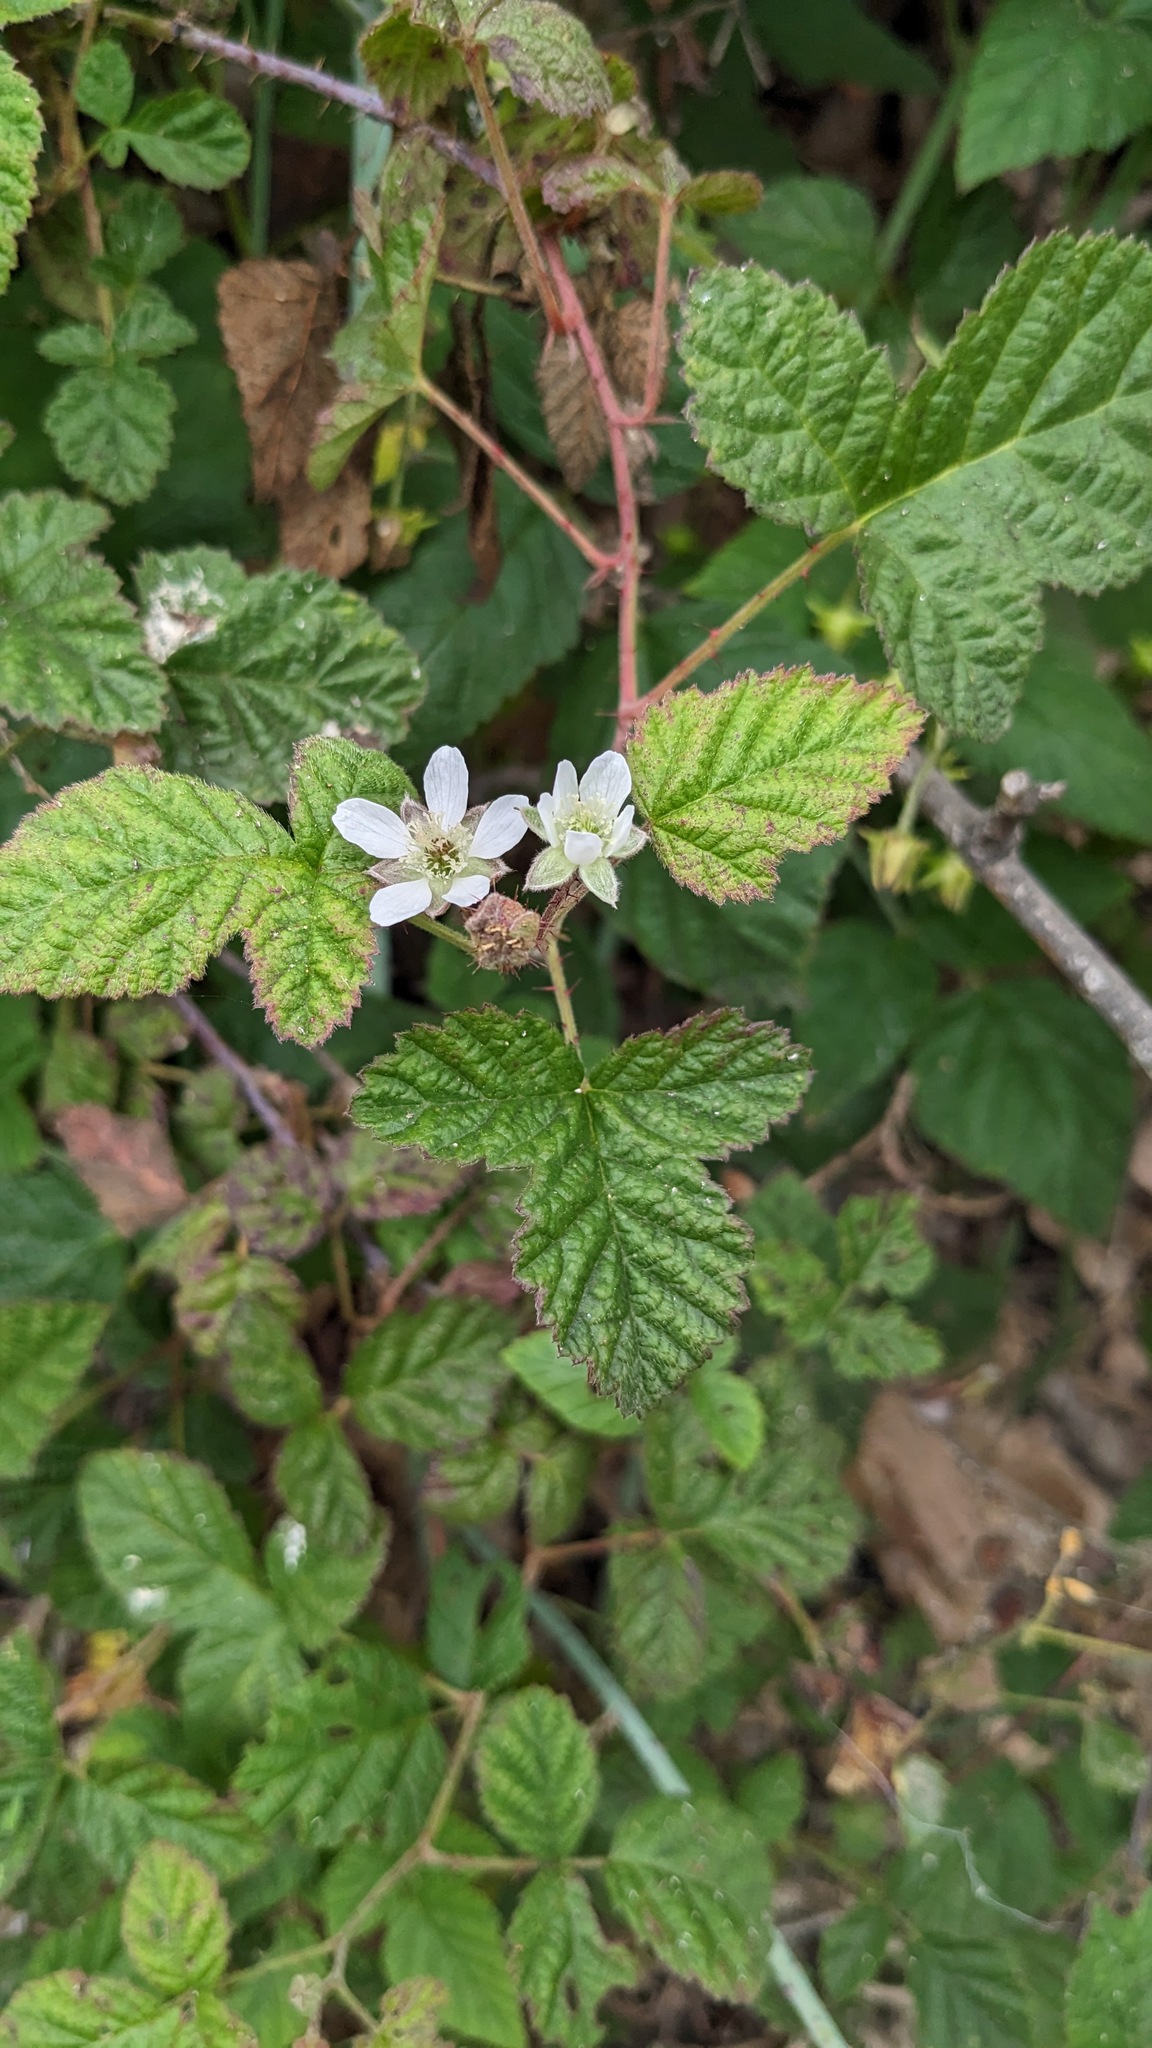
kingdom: Plantae
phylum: Tracheophyta
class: Magnoliopsida
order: Rosales
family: Rosaceae
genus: Rubus
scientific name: Rubus ursinus
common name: Pacific blackberry
